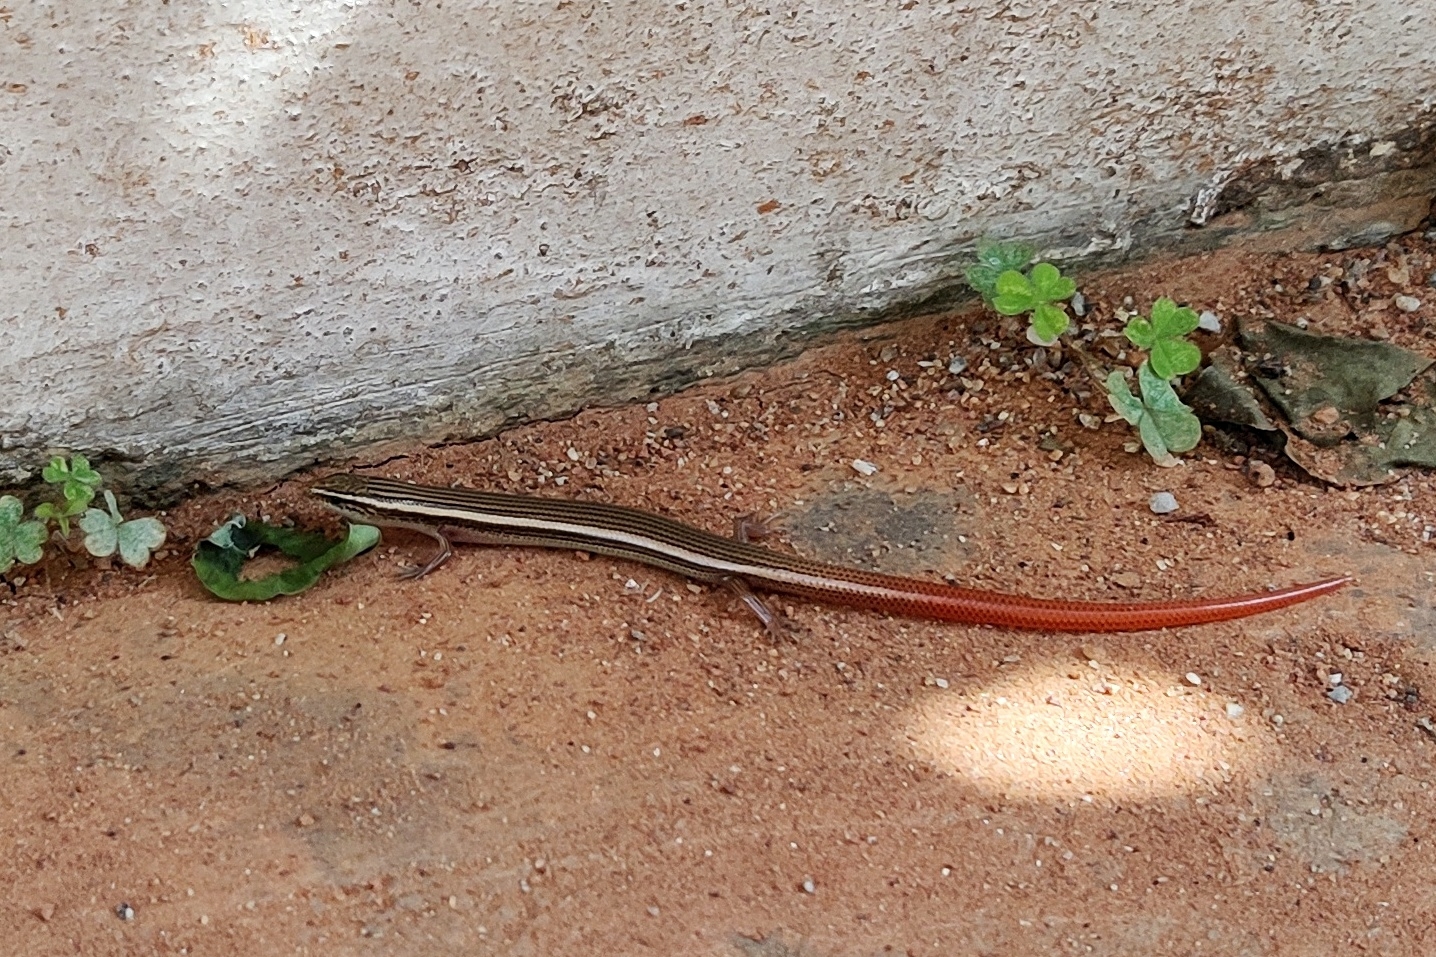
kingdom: Animalia
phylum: Chordata
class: Squamata
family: Scincidae
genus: Riopa
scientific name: Riopa punctata
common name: Common dotted garden skink
